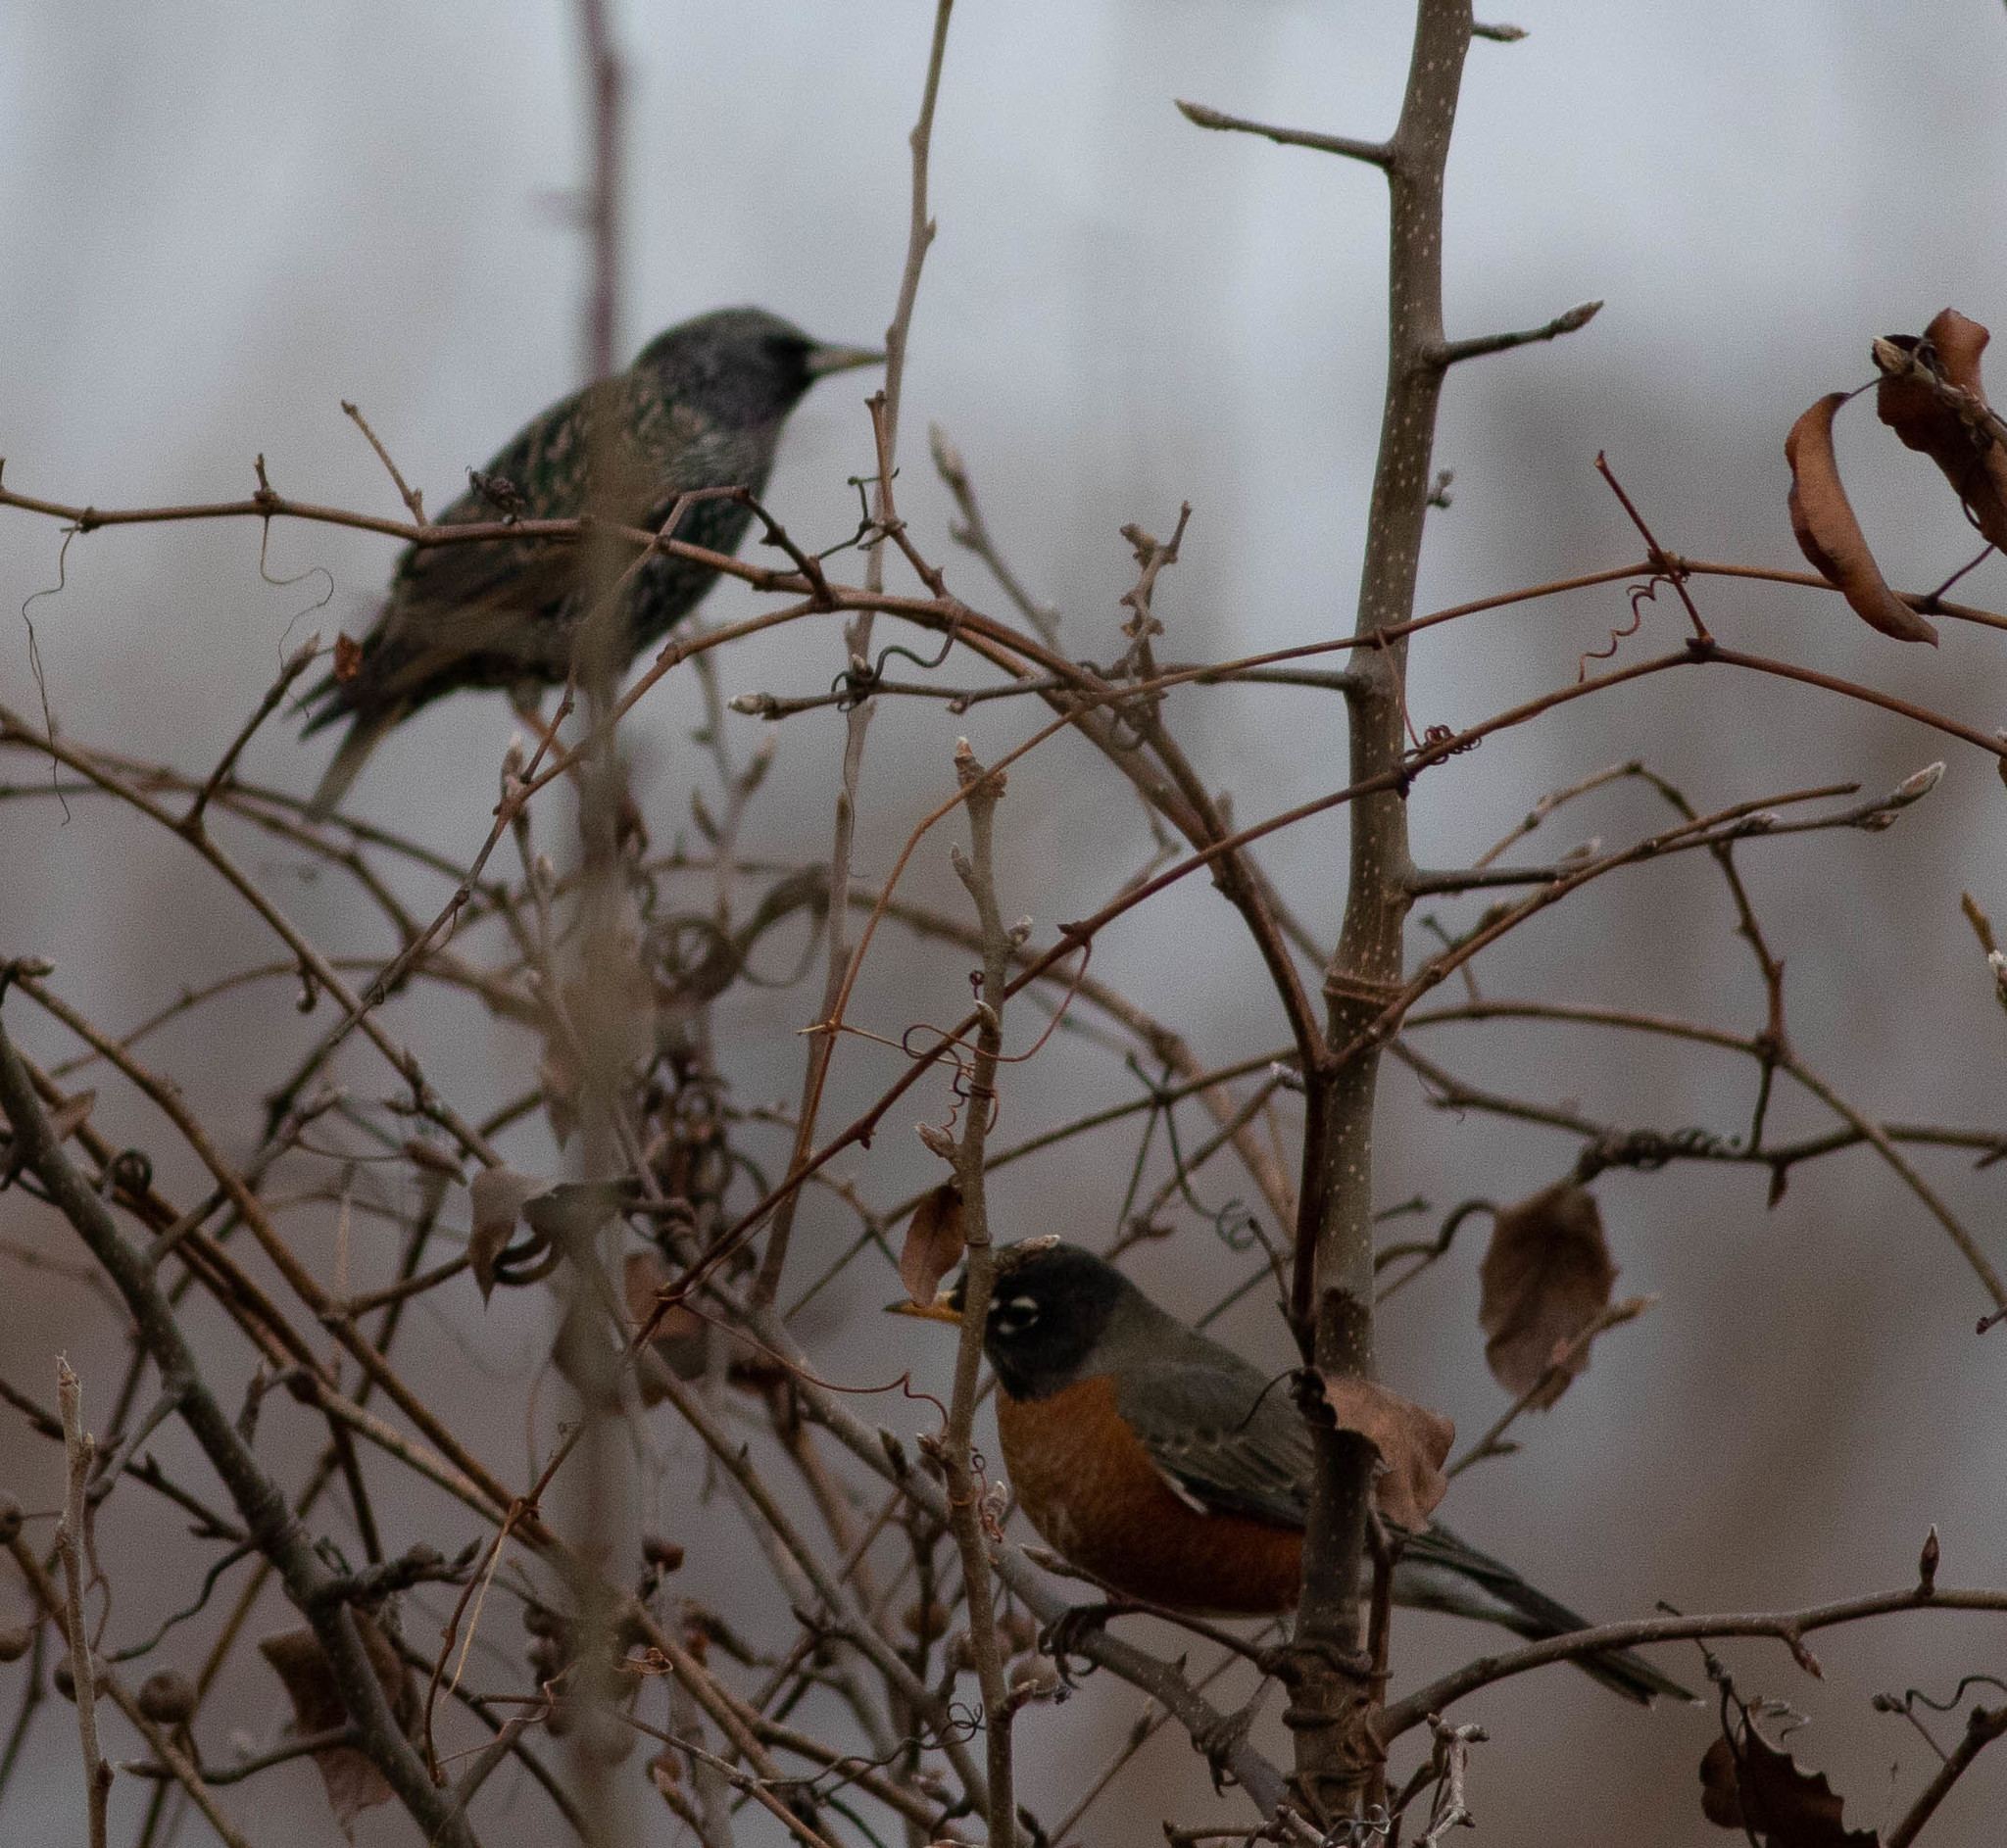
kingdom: Animalia
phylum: Chordata
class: Aves
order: Passeriformes
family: Turdidae
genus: Turdus
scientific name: Turdus migratorius
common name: American robin
